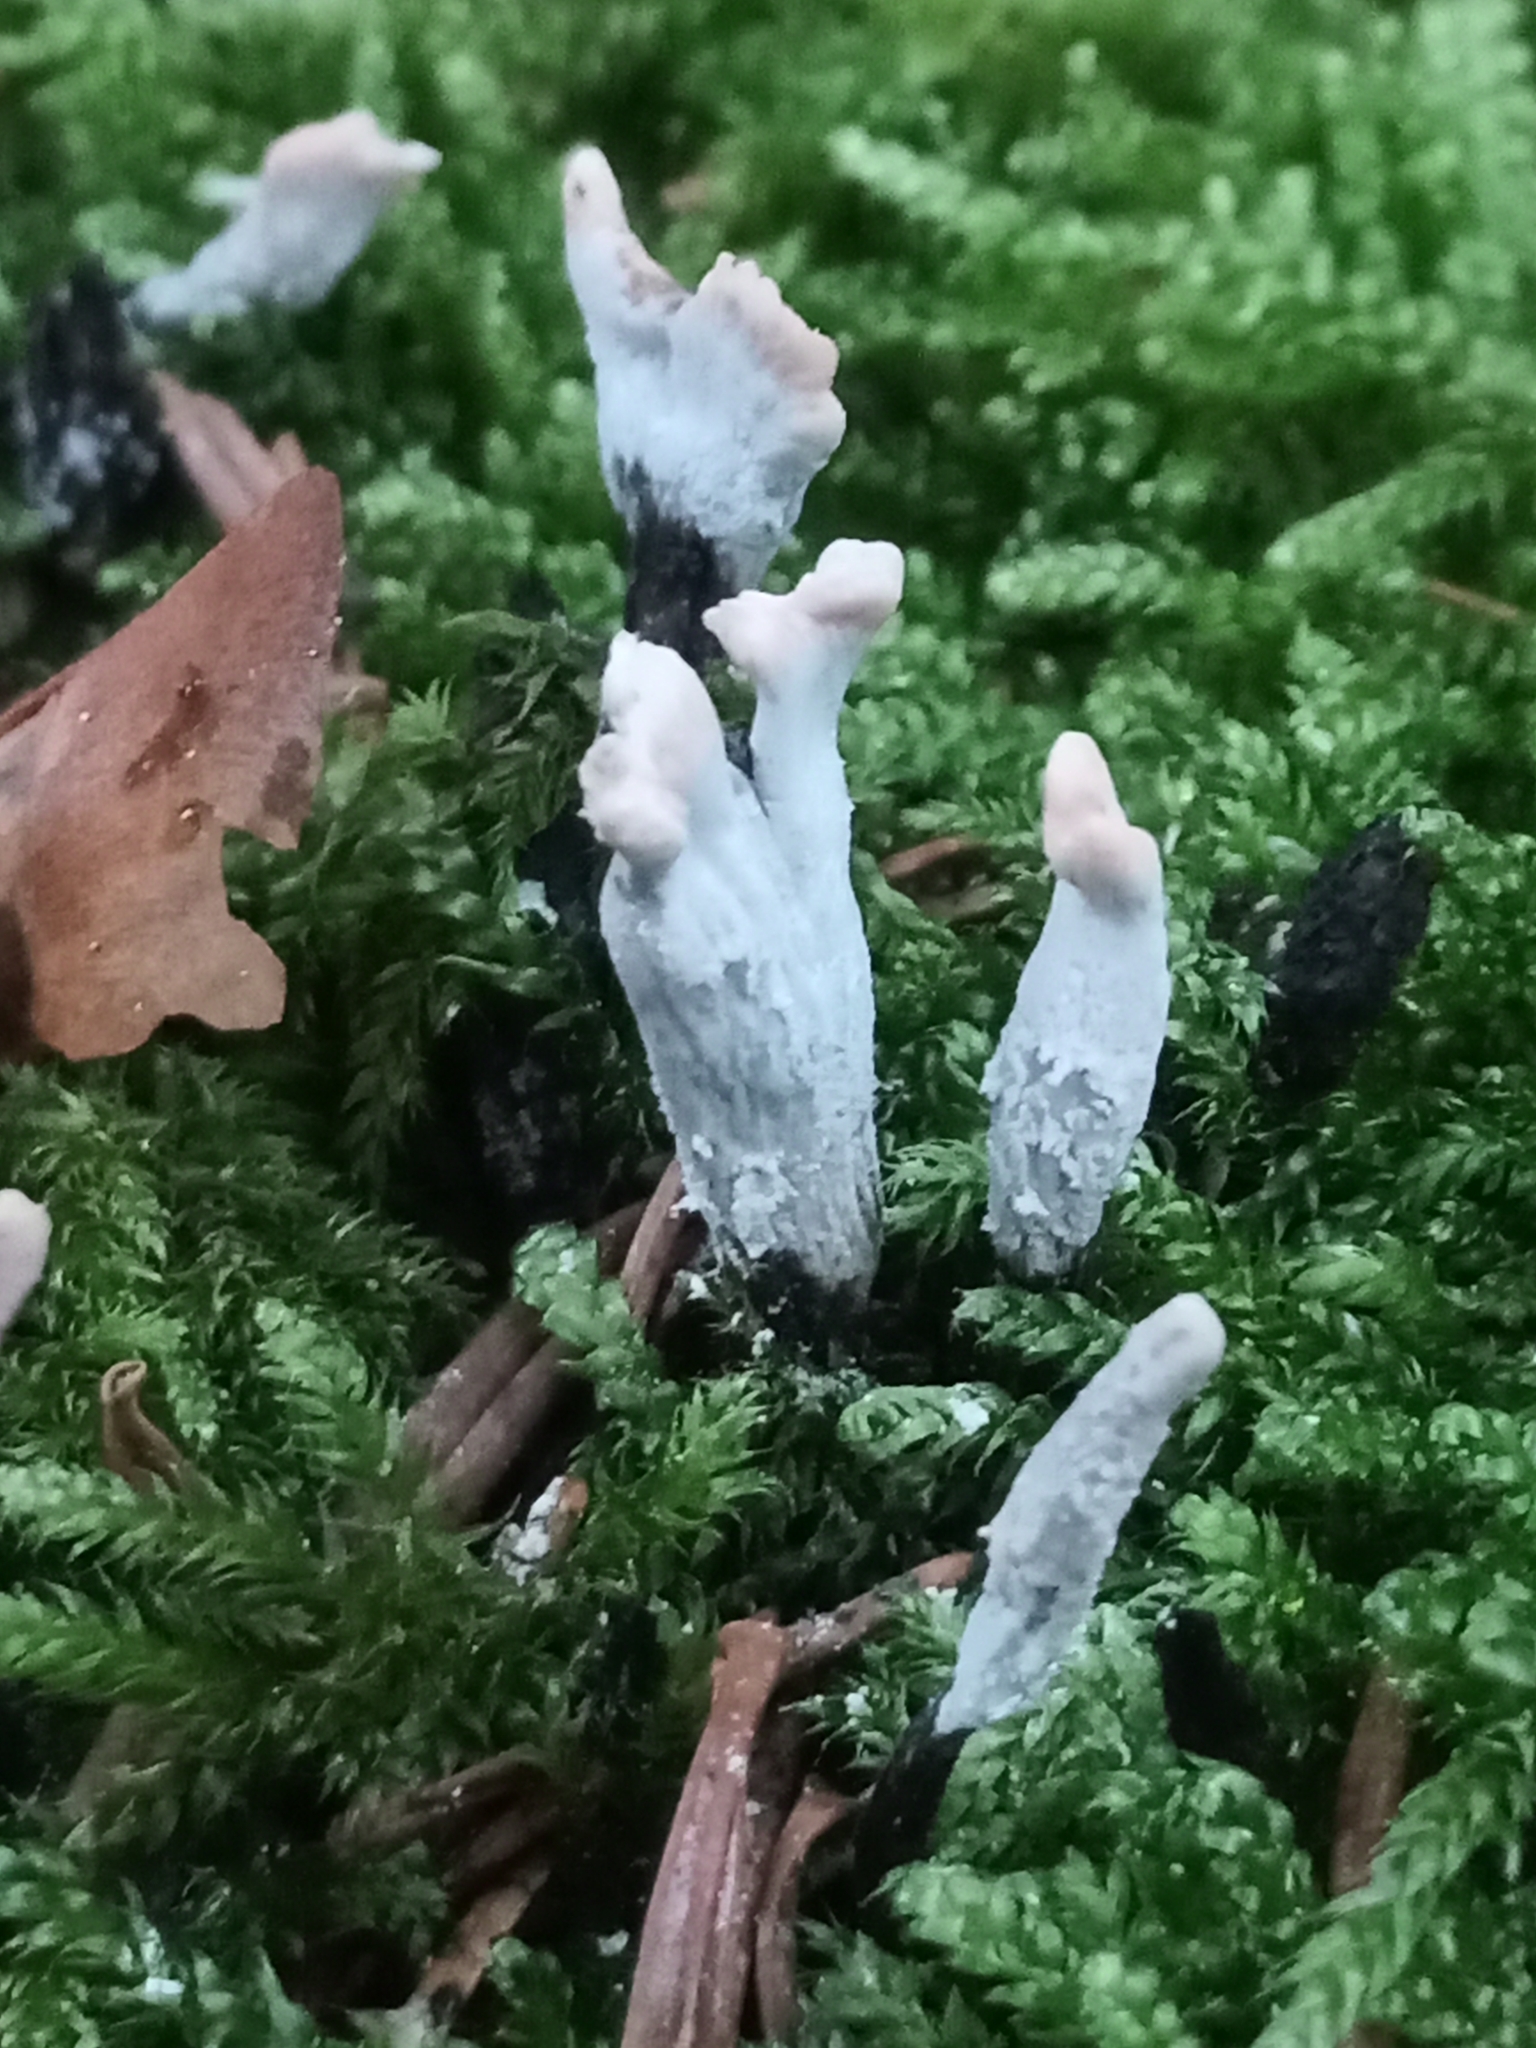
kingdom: Fungi
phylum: Ascomycota
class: Sordariomycetes
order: Xylariales
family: Xylariaceae
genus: Xylaria
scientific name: Xylaria hypoxylon
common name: Candle-snuff fungus
